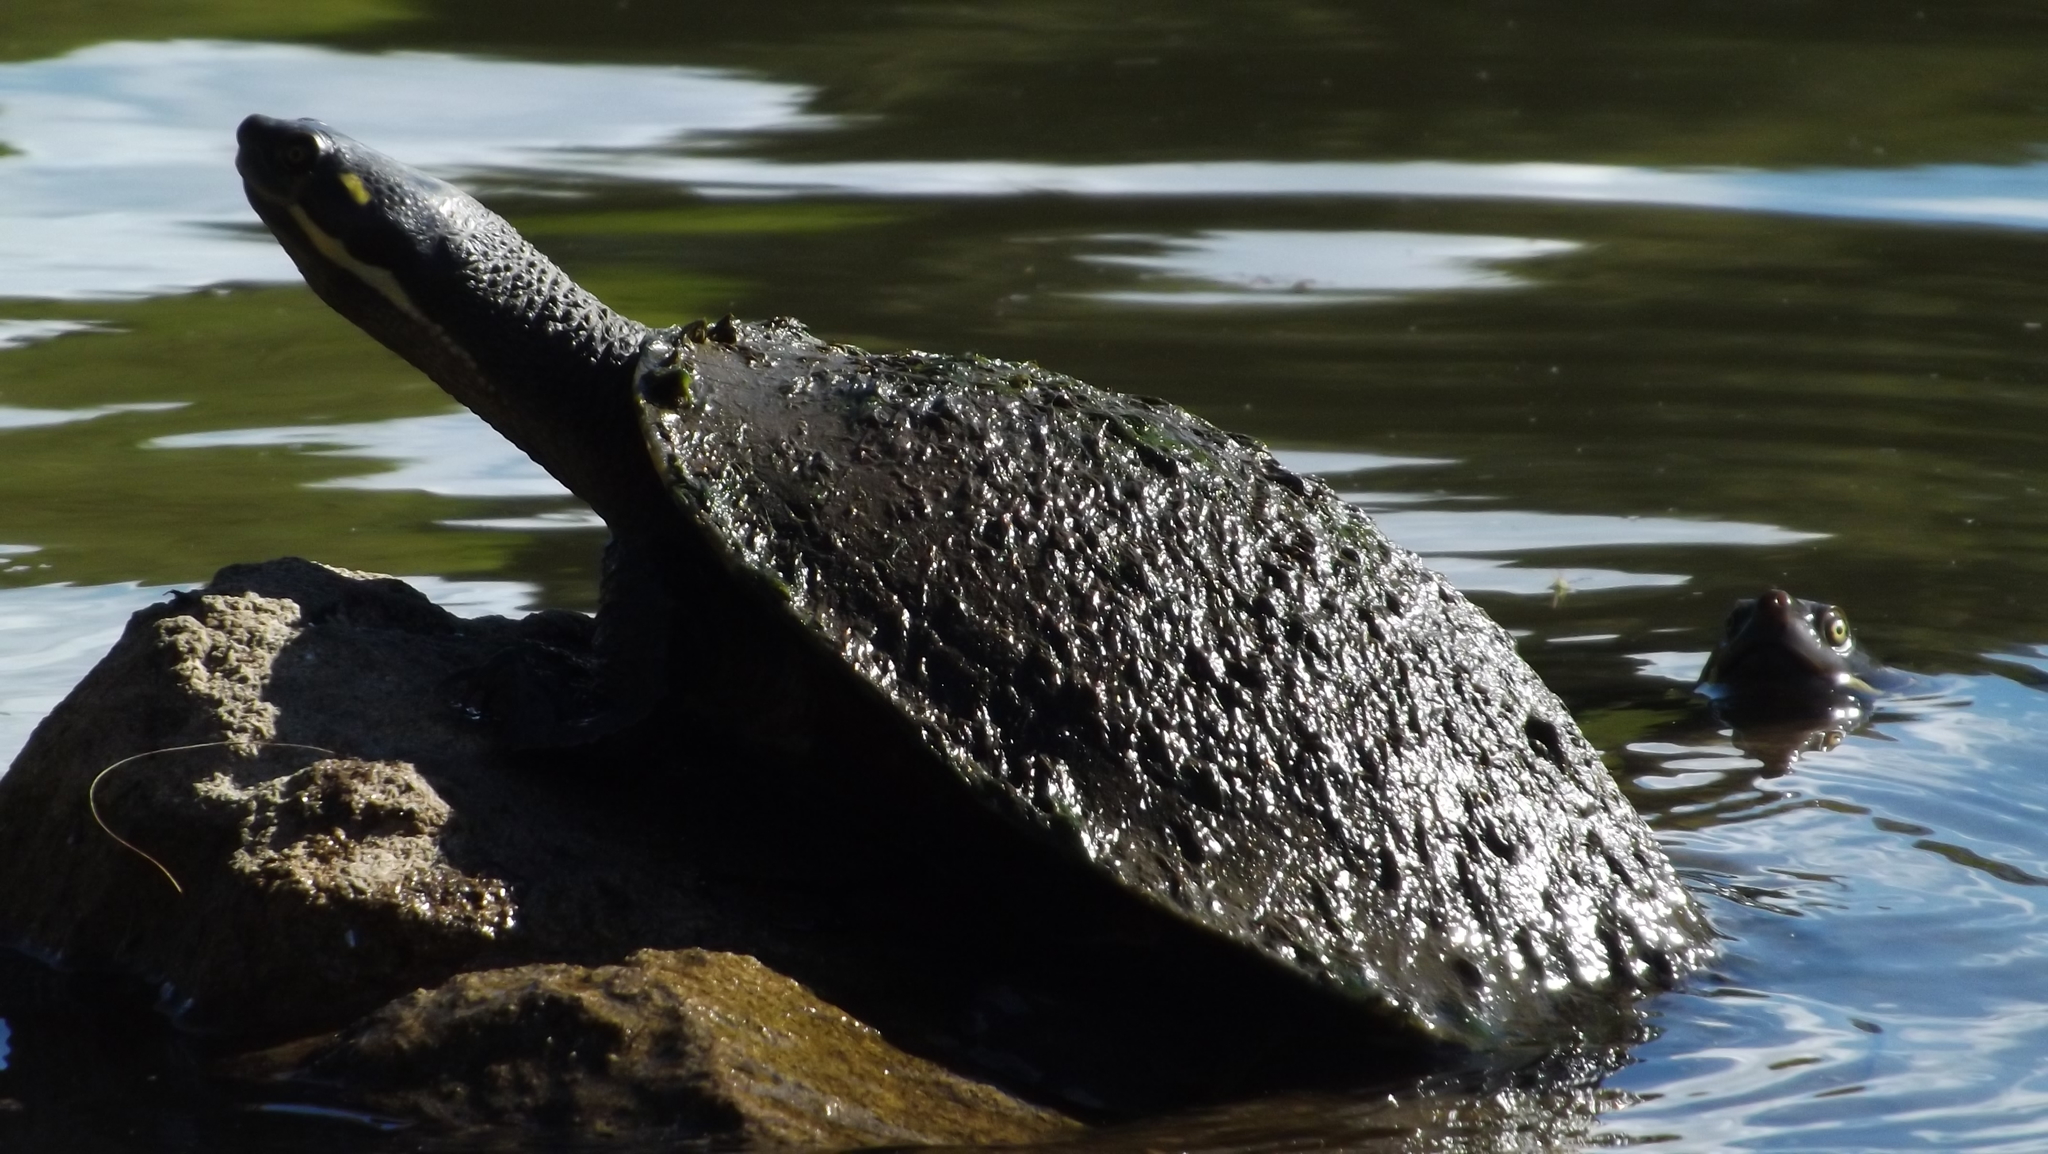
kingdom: Animalia
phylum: Chordata
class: Testudines
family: Chelidae
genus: Emydura
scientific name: Emydura macquarii
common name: Murray river turtle
